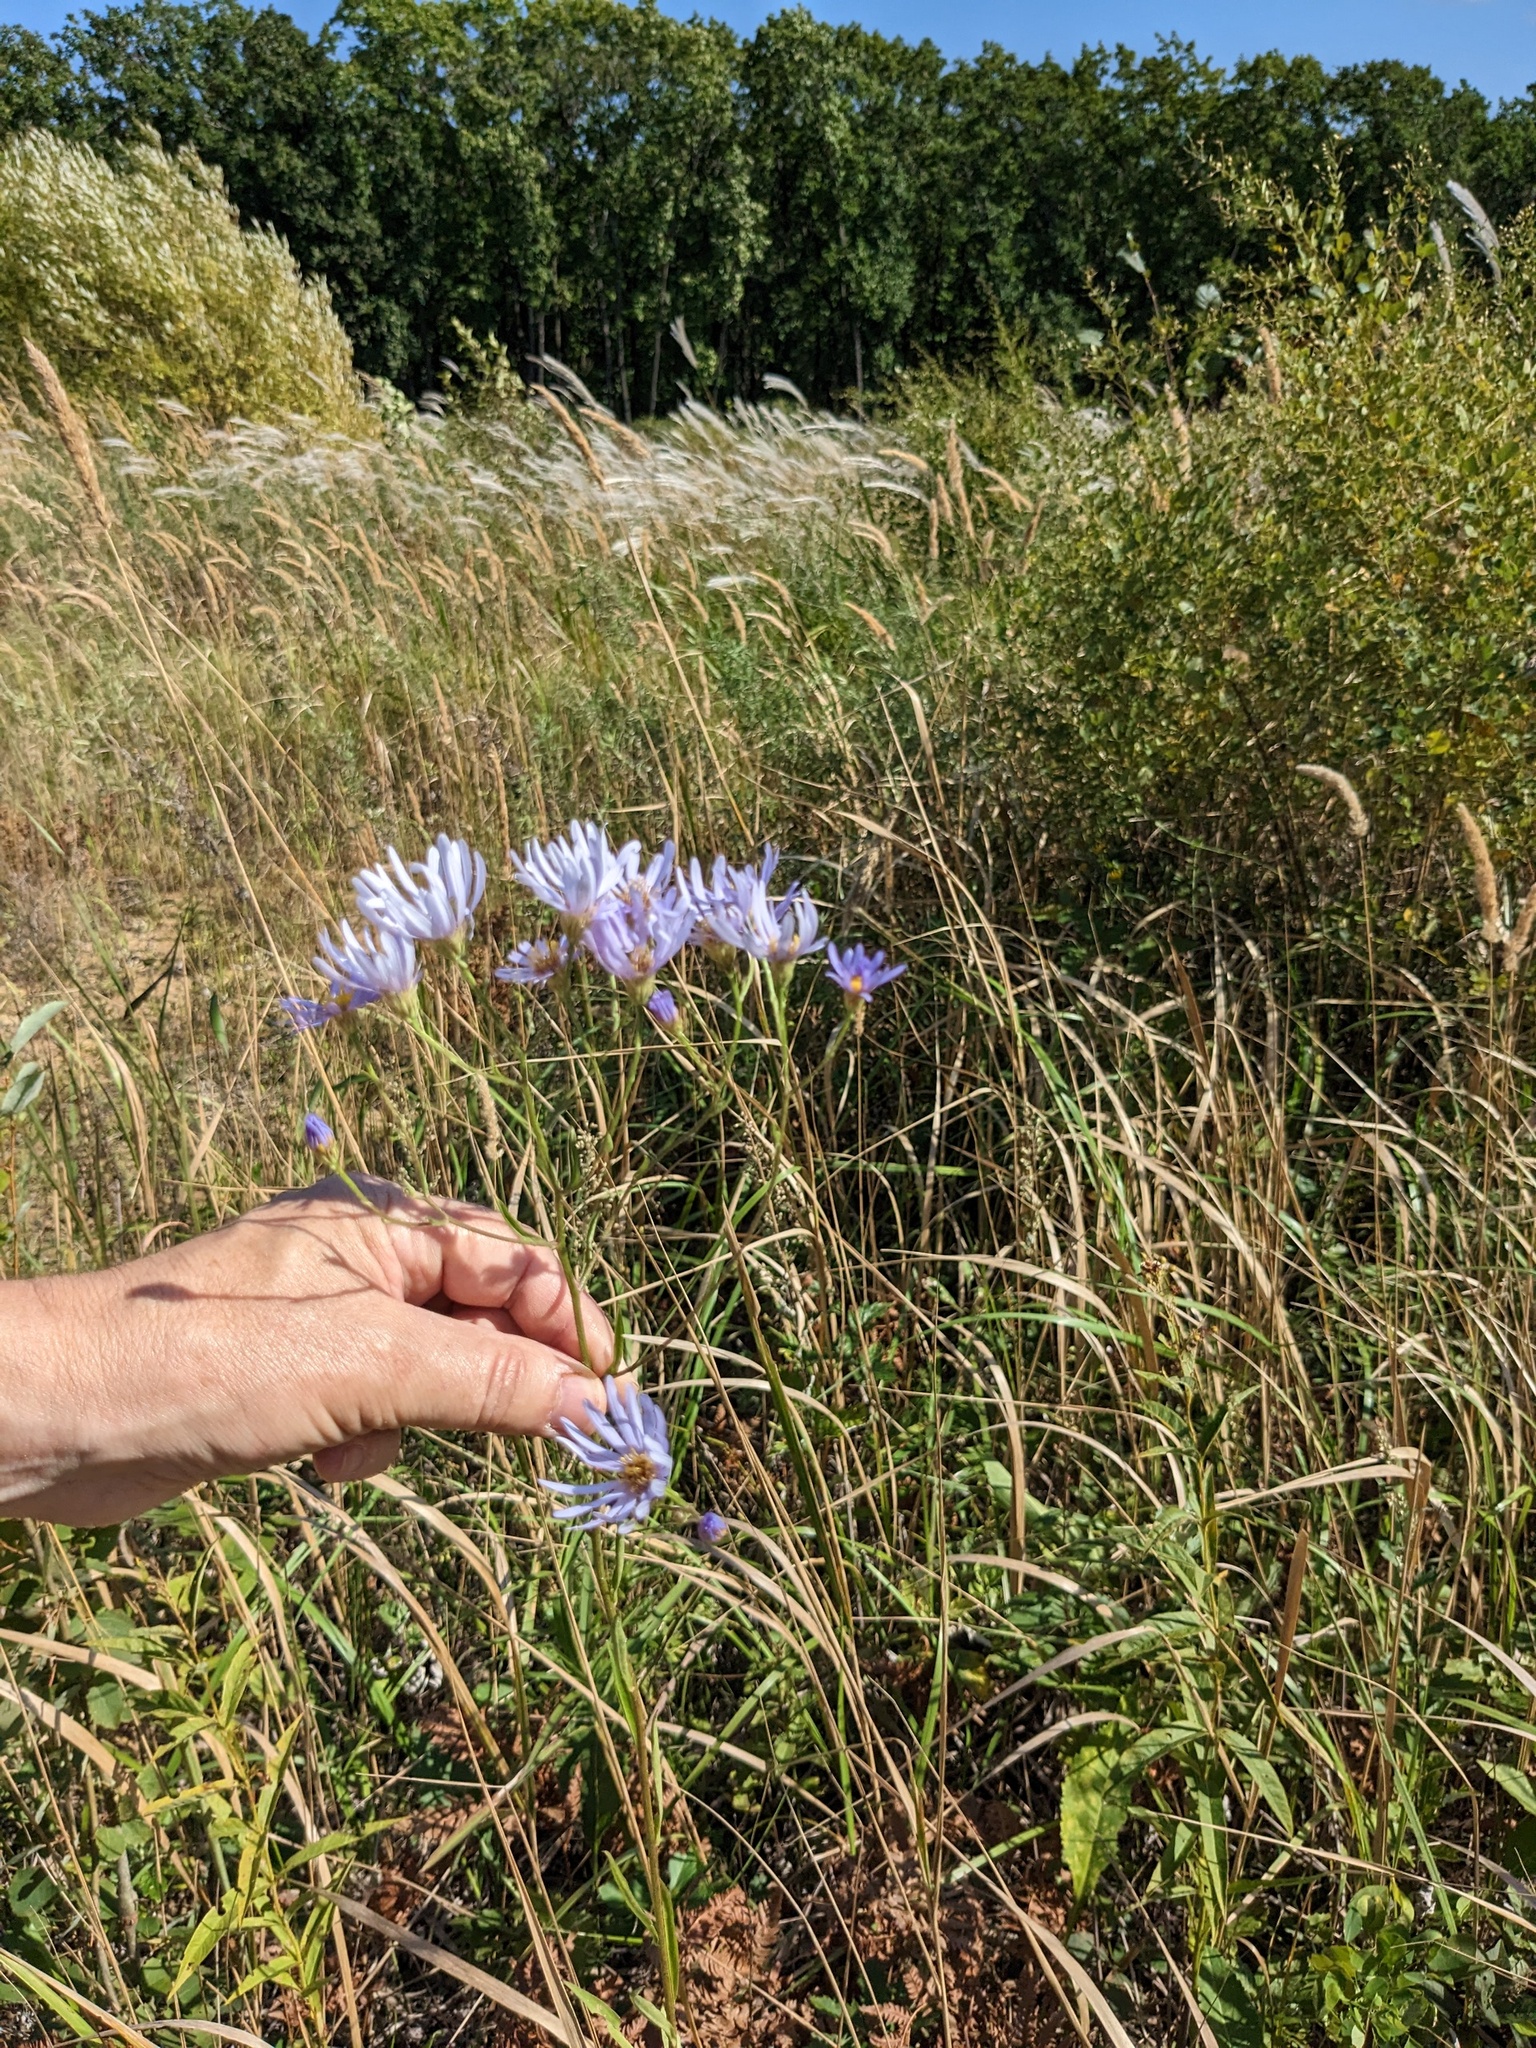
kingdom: Plantae
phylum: Tracheophyta
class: Magnoliopsida
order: Asterales
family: Asteraceae
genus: Aster
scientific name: Aster tataricus
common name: Tatarian aster
